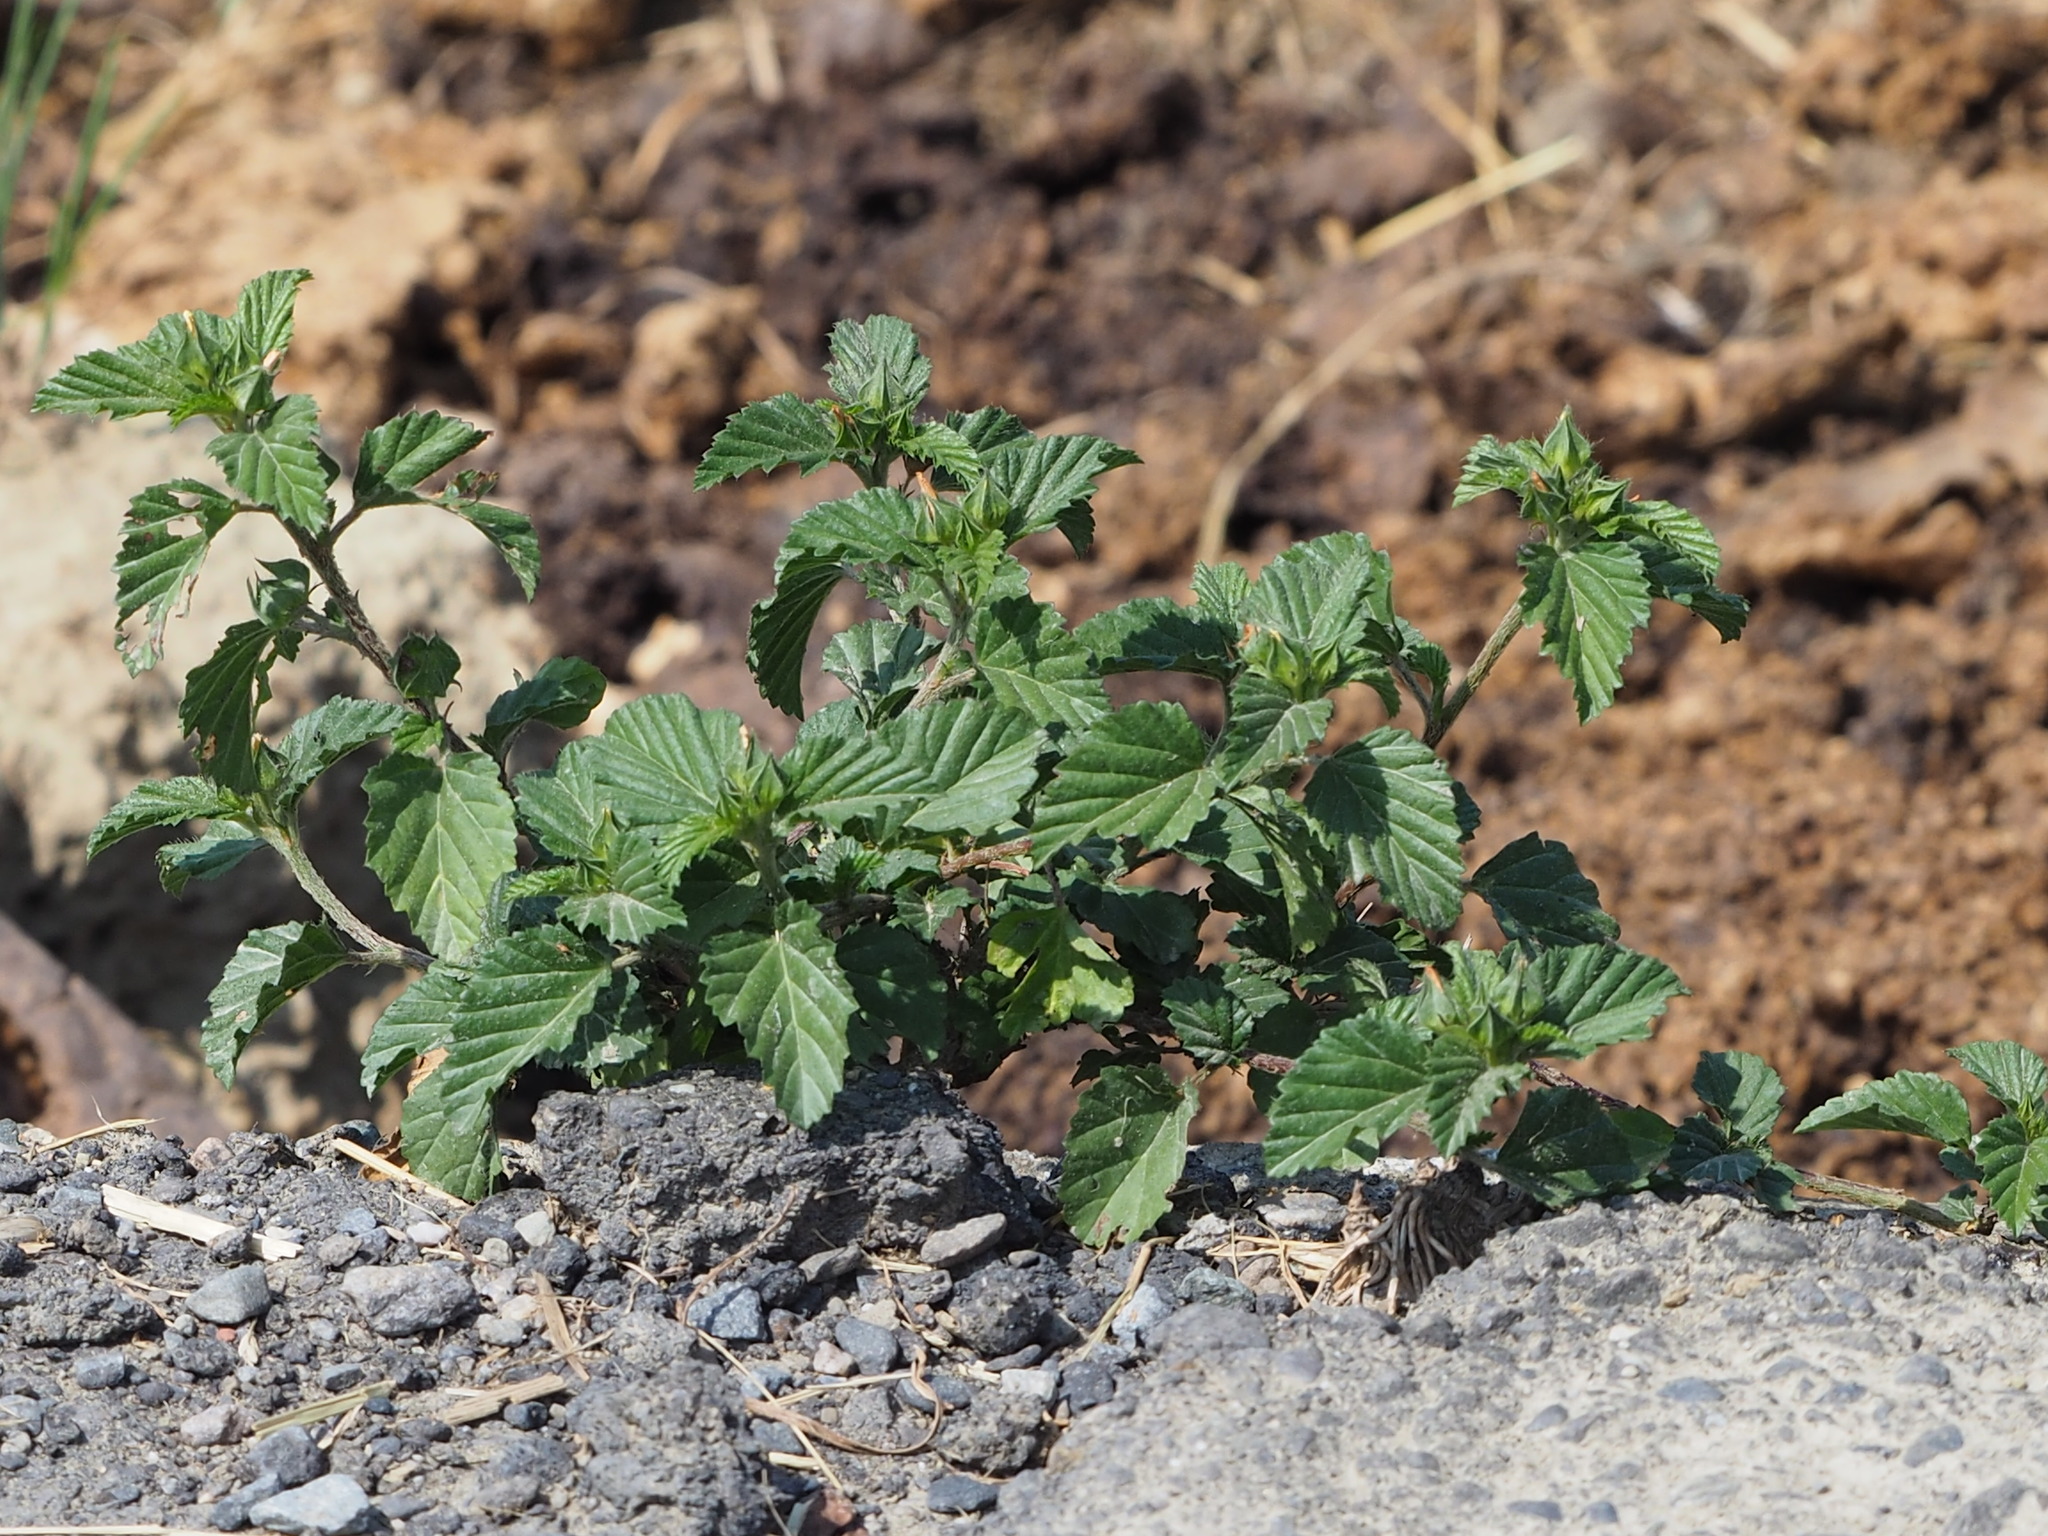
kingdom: Plantae
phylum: Tracheophyta
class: Magnoliopsida
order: Malvales
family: Malvaceae
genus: Malvastrum
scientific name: Malvastrum coromandelianum
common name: Threelobe false mallow
